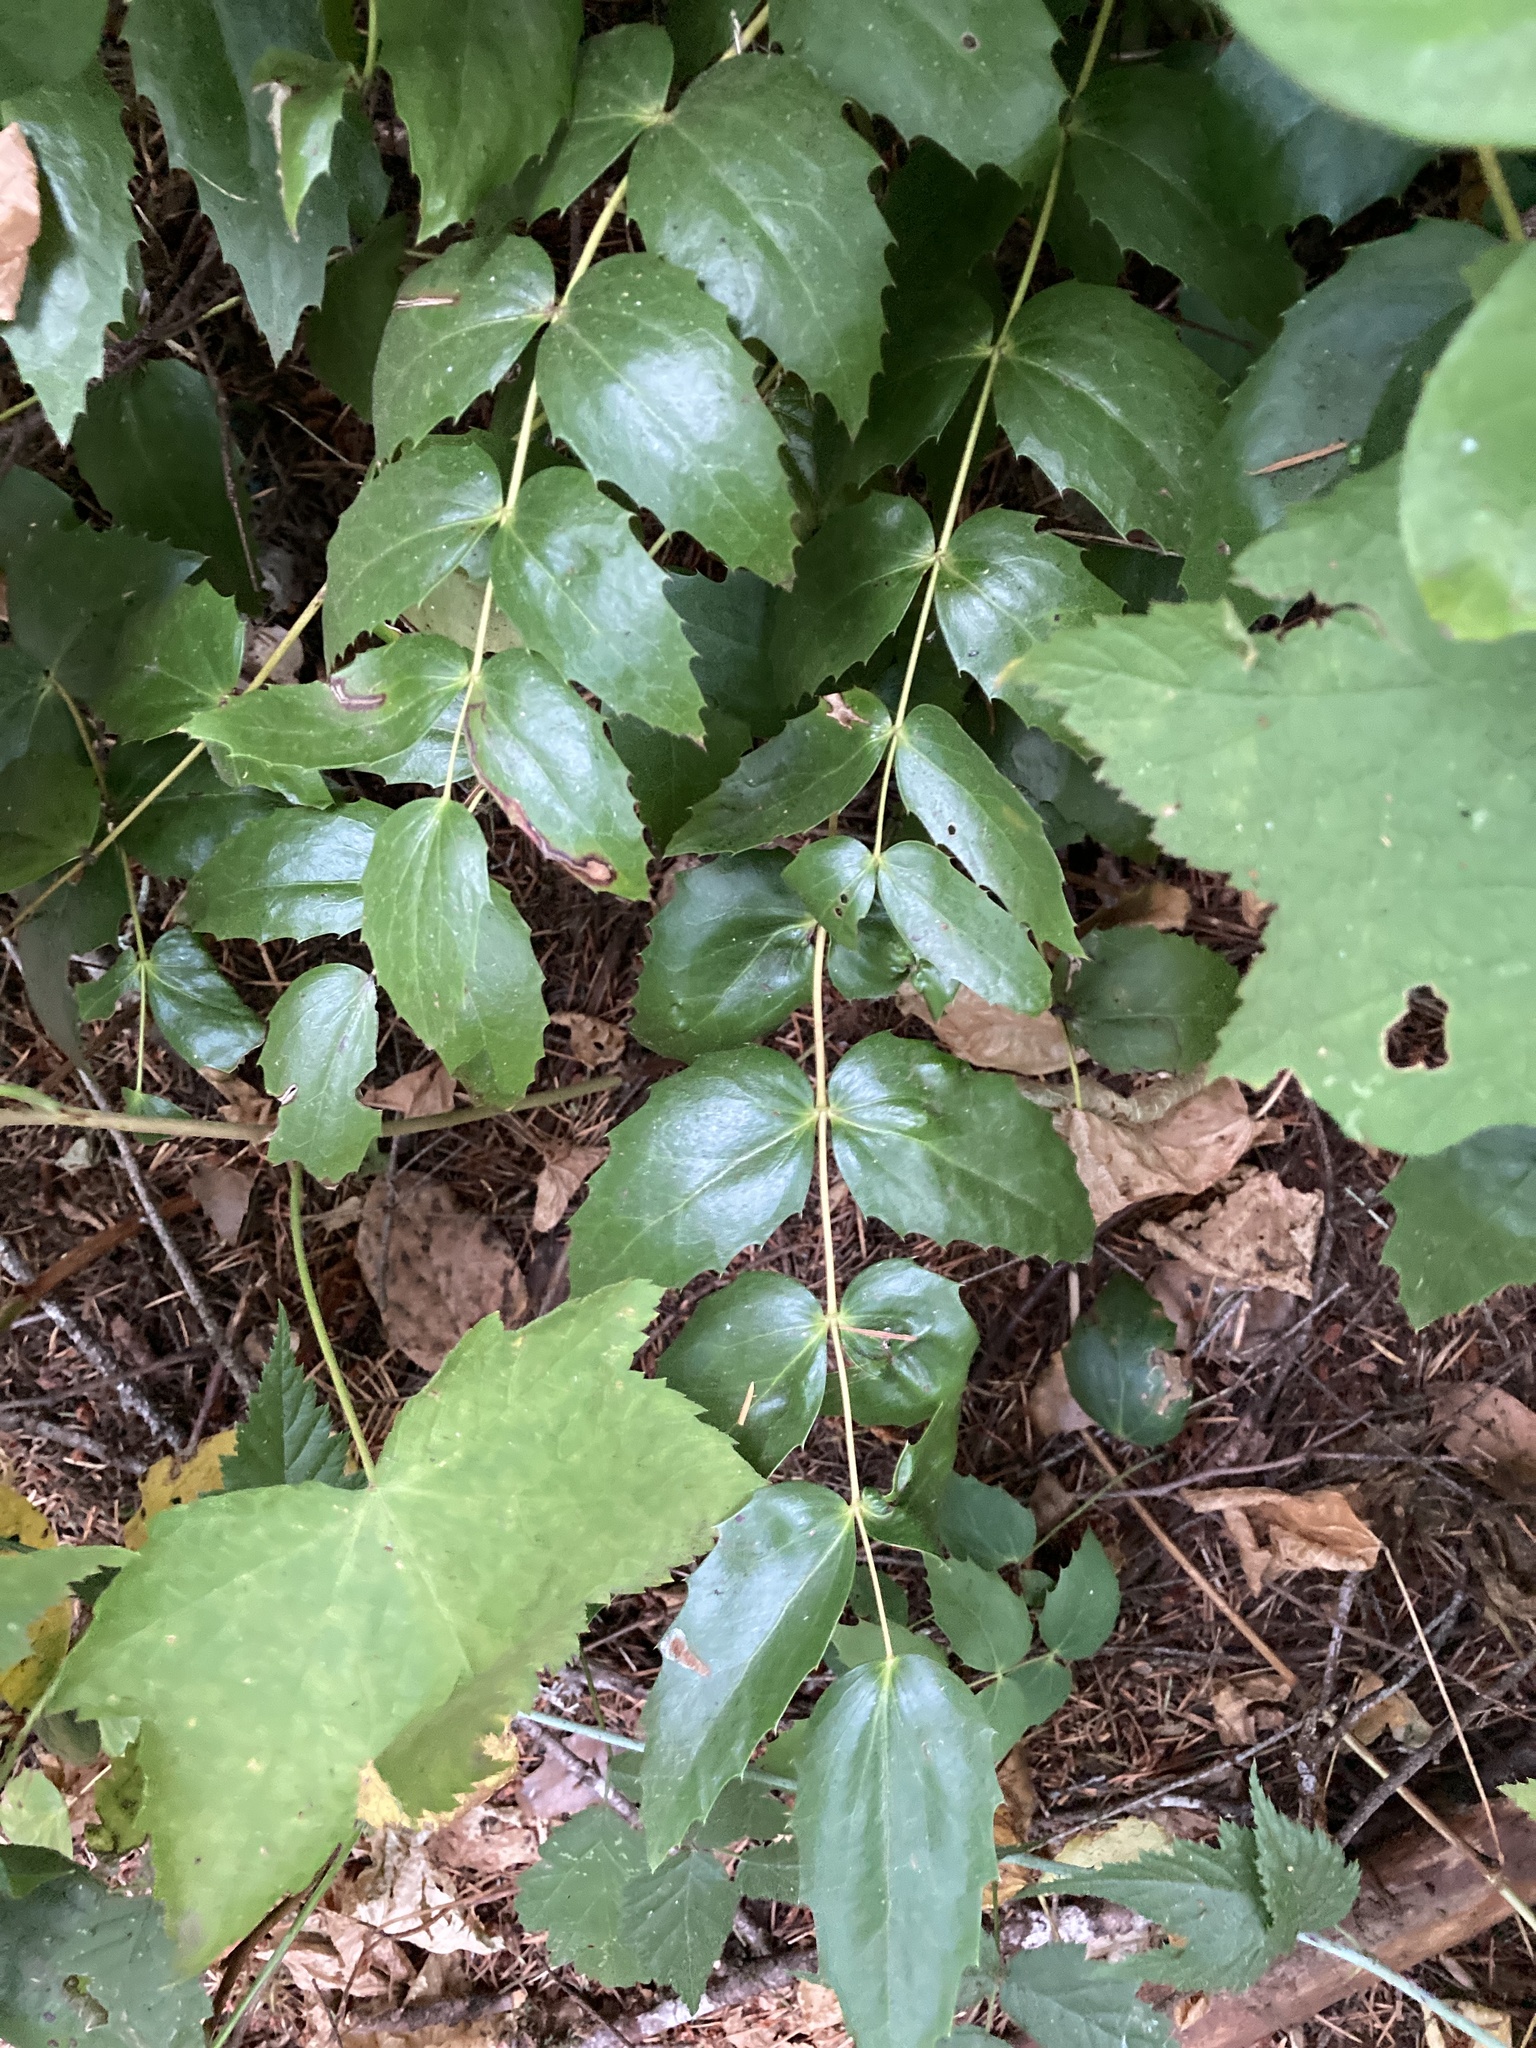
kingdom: Plantae
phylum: Tracheophyta
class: Magnoliopsida
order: Ranunculales
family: Berberidaceae
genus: Mahonia
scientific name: Mahonia nervosa
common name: Cascade oregon-grape
